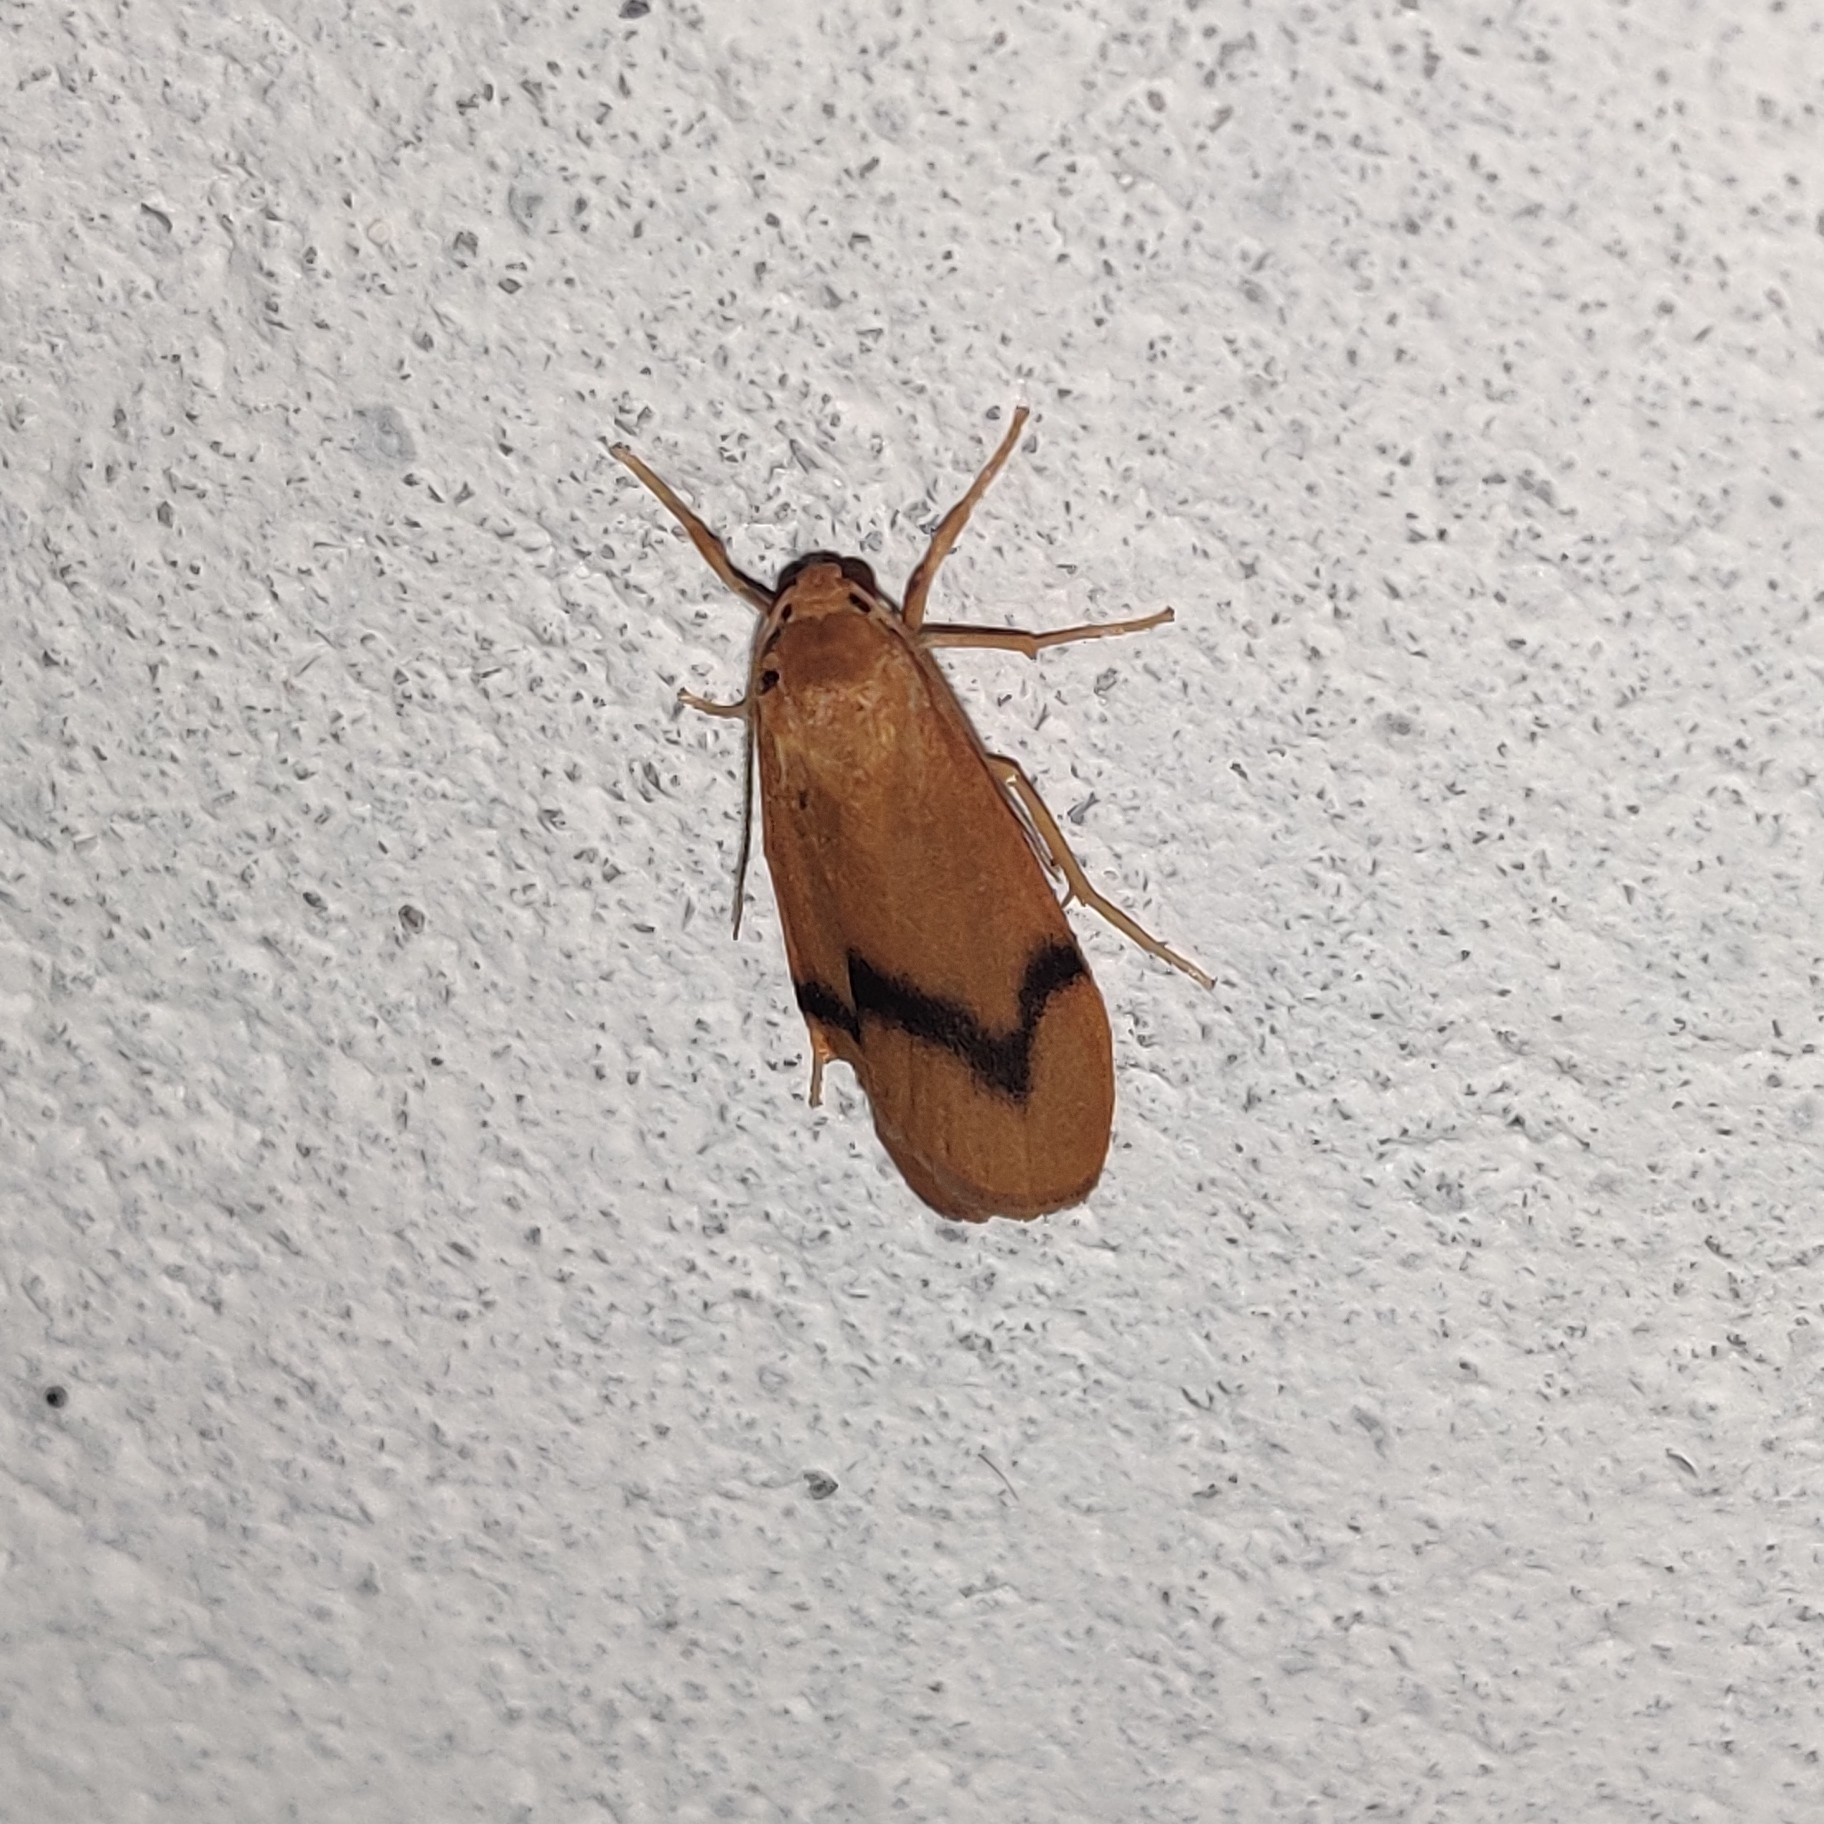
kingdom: Animalia
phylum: Arthropoda
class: Insecta
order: Lepidoptera
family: Erebidae
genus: Dolgoma
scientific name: Dolgoma angulifera
